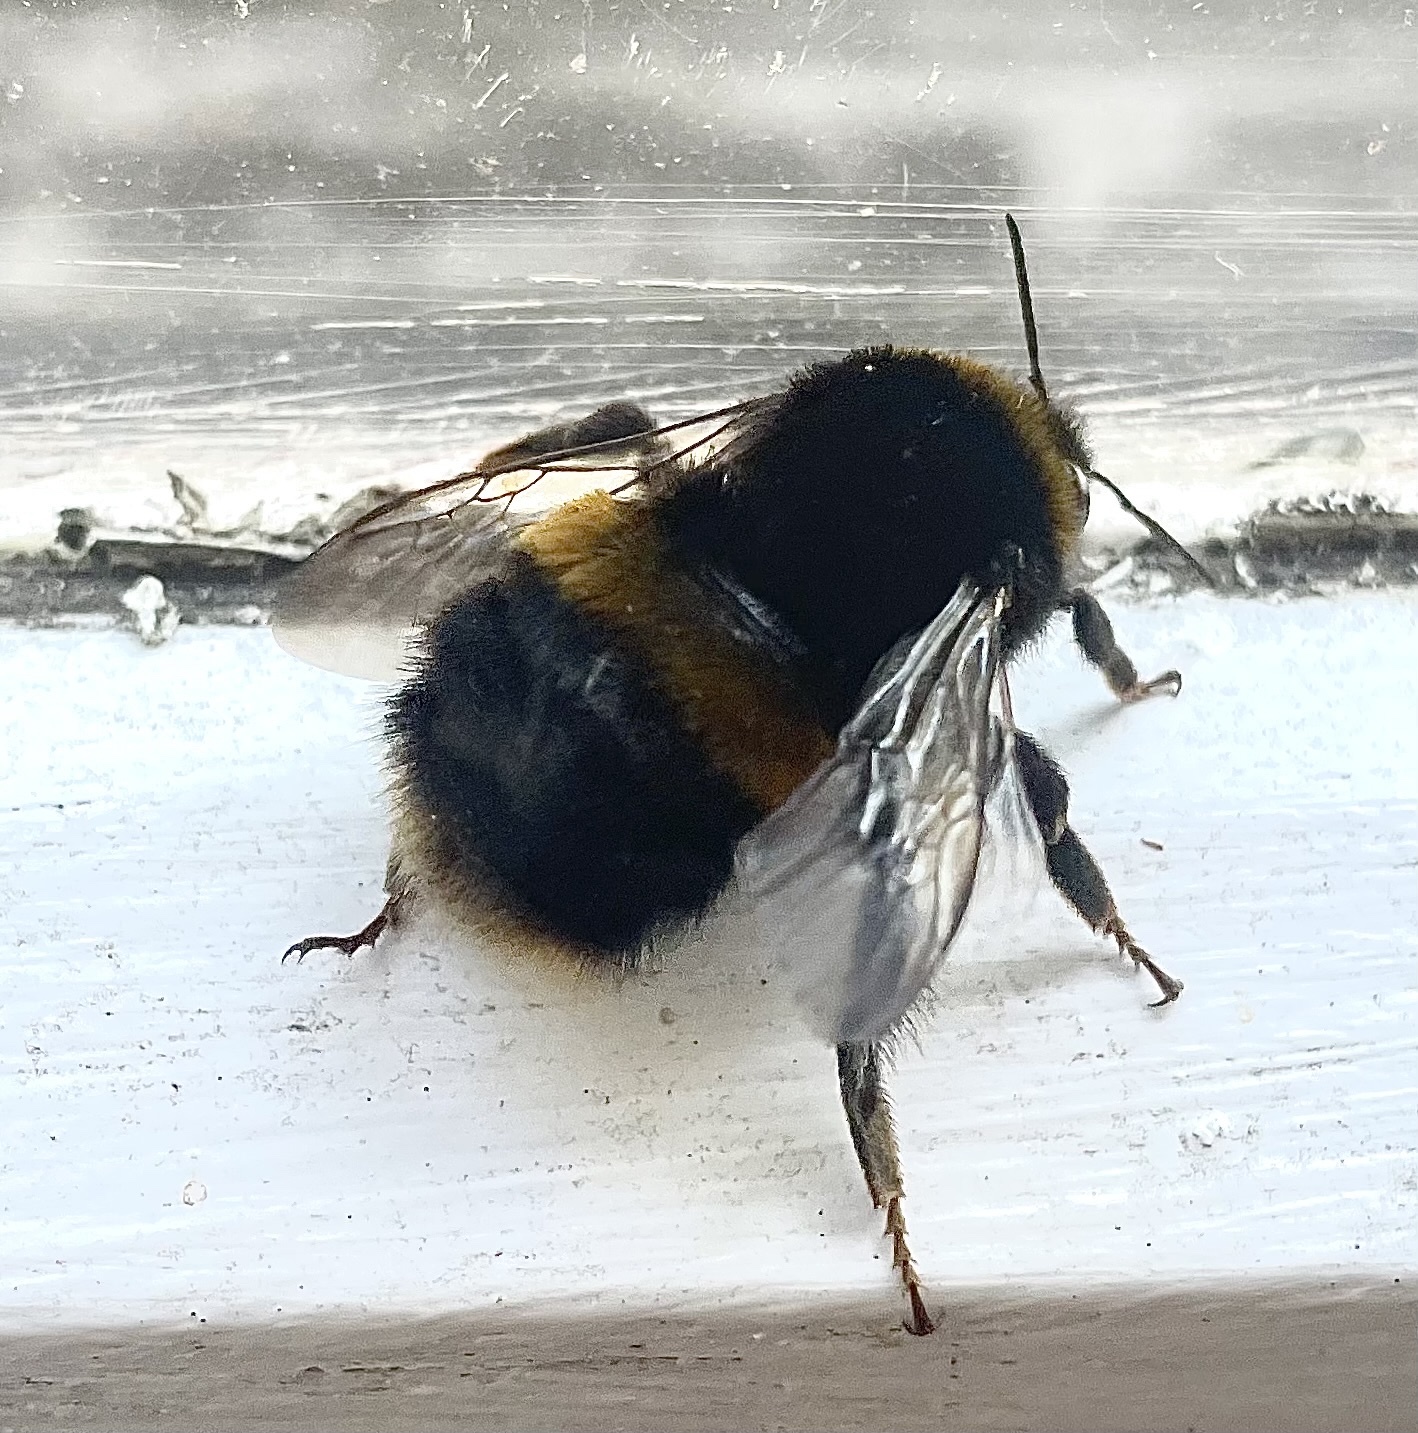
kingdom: Animalia
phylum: Arthropoda
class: Insecta
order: Hymenoptera
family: Apidae
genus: Bombus
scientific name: Bombus terrestris
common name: Buff-tailed bumblebee
